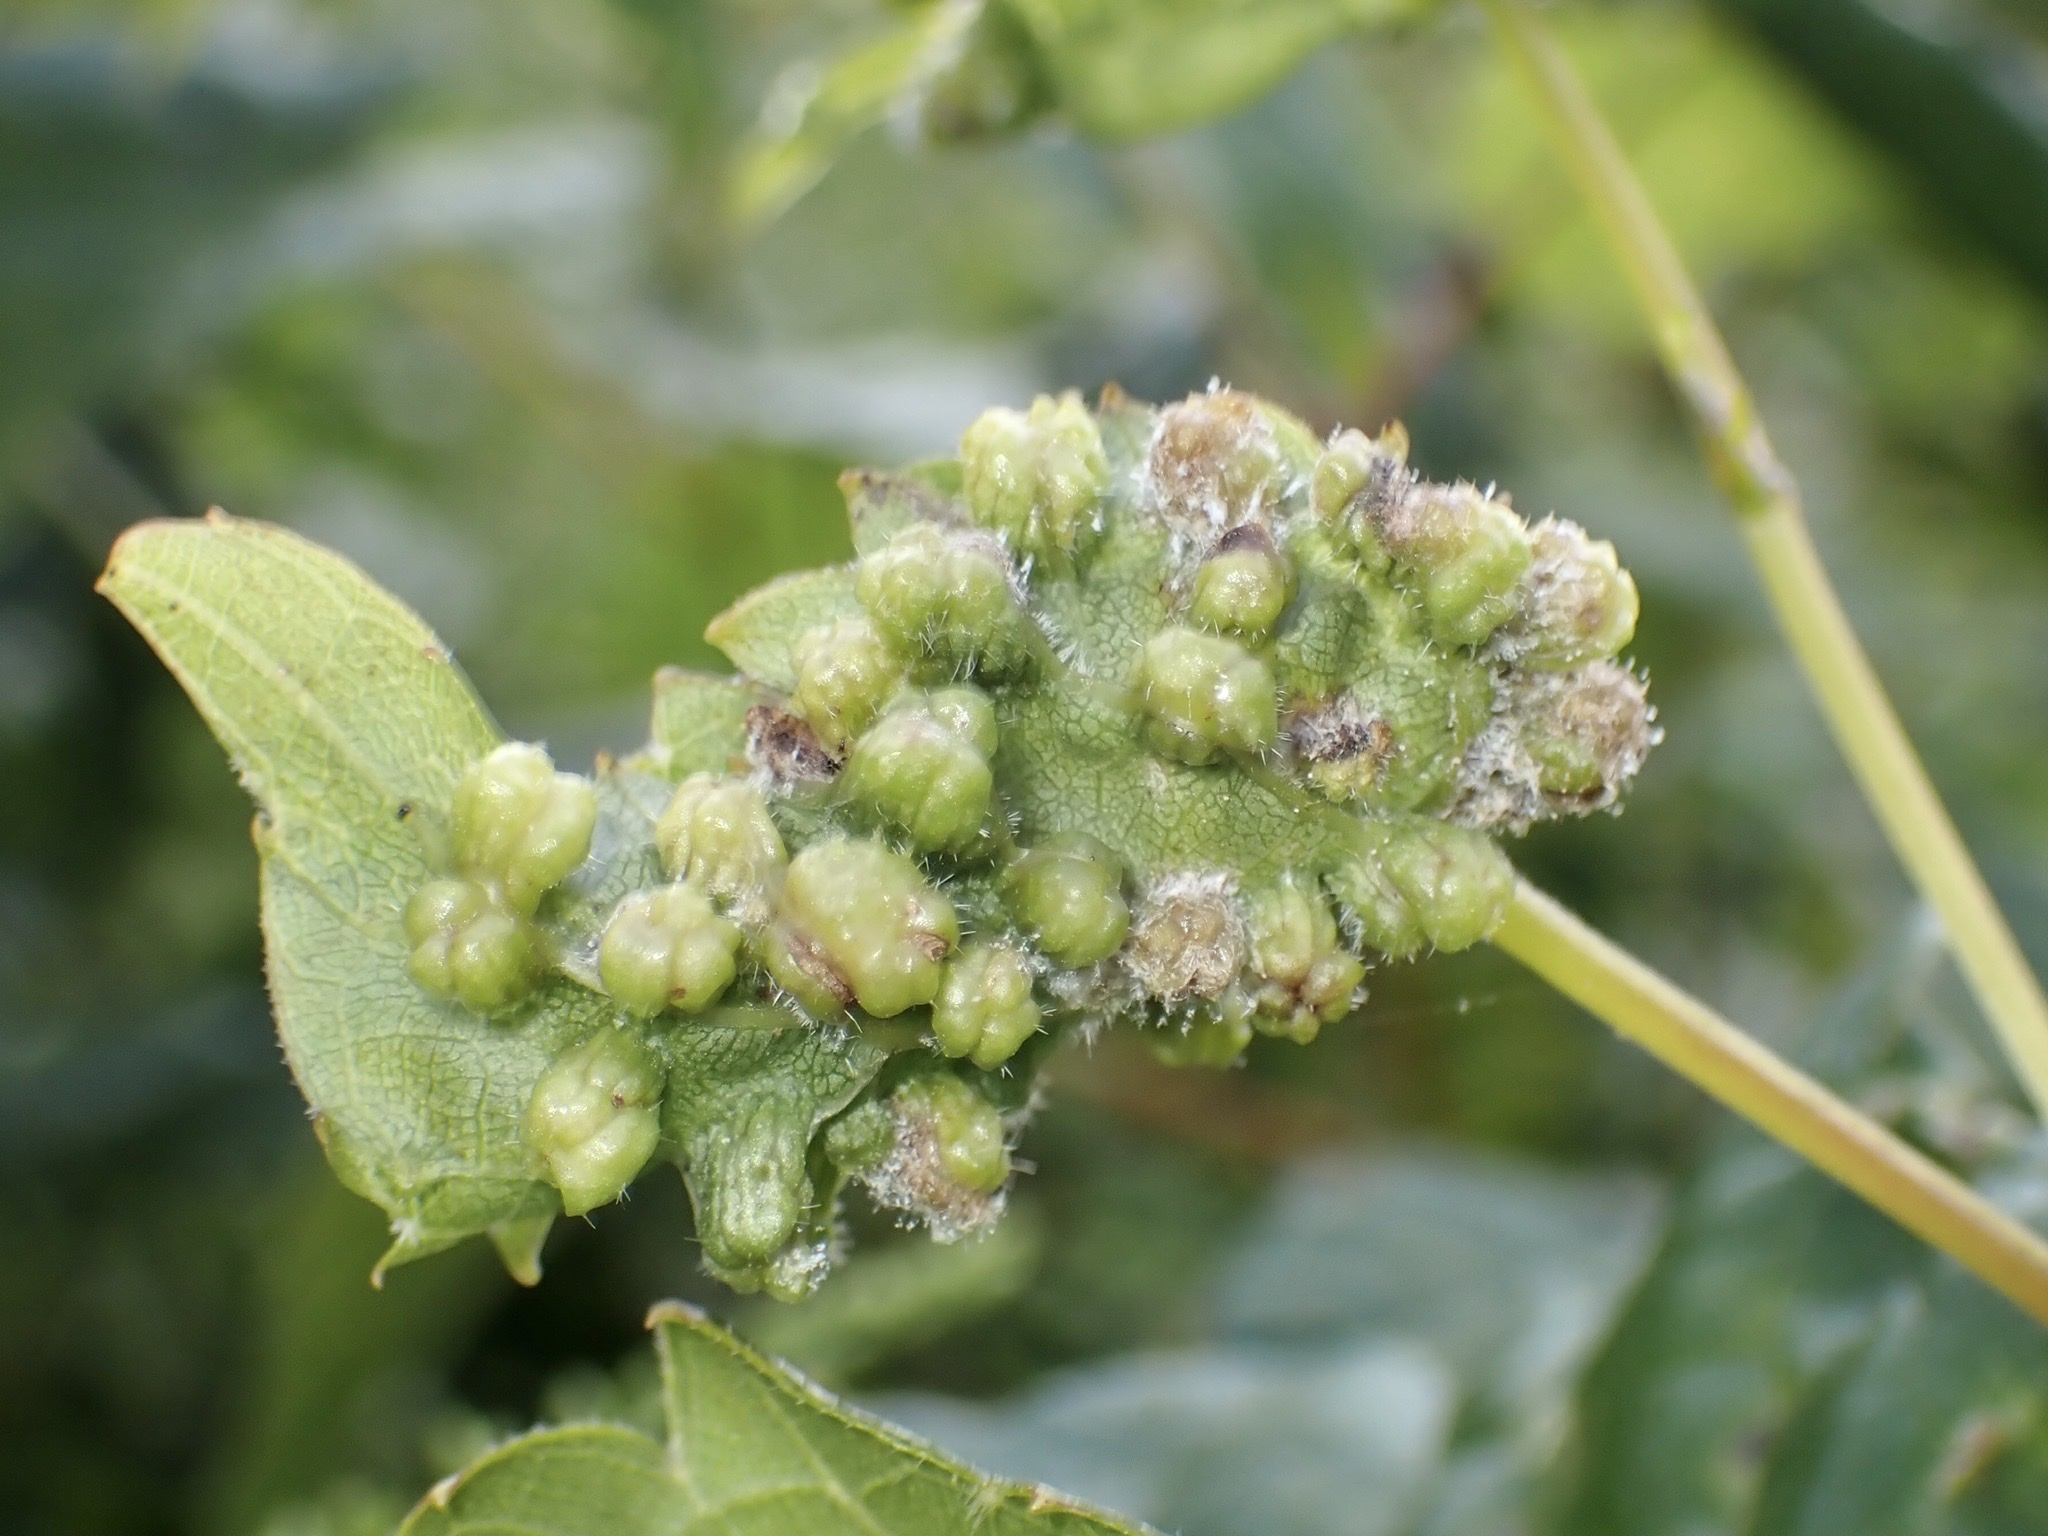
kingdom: Animalia
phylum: Arthropoda
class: Insecta
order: Hemiptera
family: Phylloxeridae
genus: Daktulosphaira
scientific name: Daktulosphaira vitifoliae
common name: Grape phylloxera
